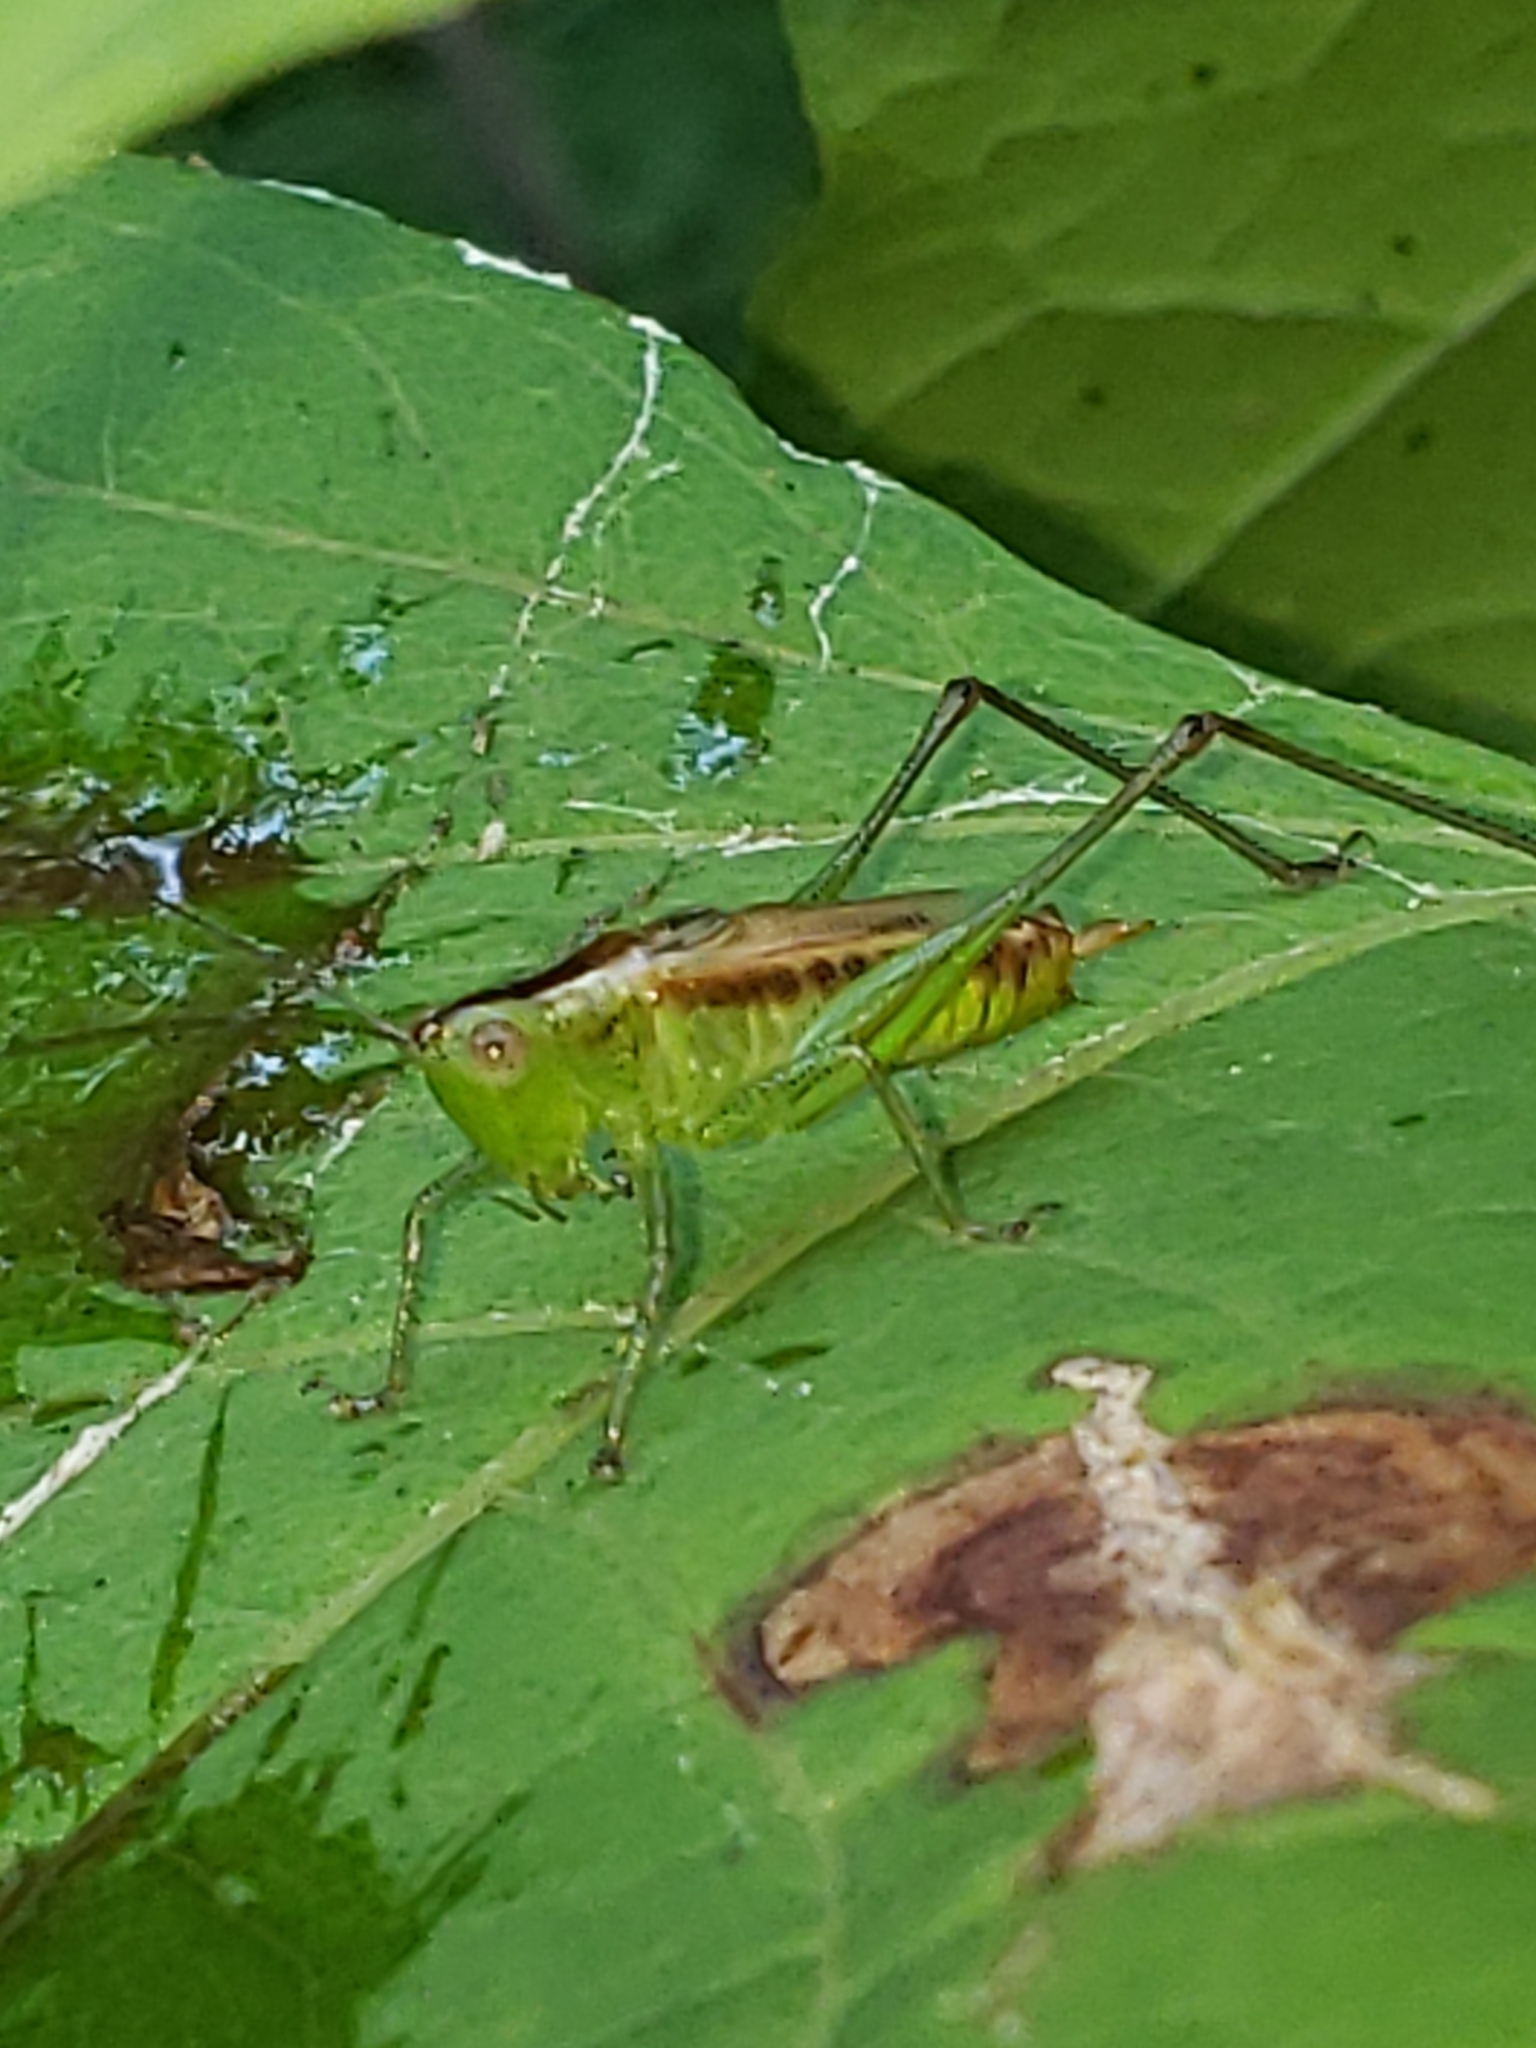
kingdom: Animalia
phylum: Arthropoda
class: Insecta
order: Orthoptera
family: Tettigoniidae
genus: Conocephalus
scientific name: Conocephalus brevipennis
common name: Short-winged meadow katydid
